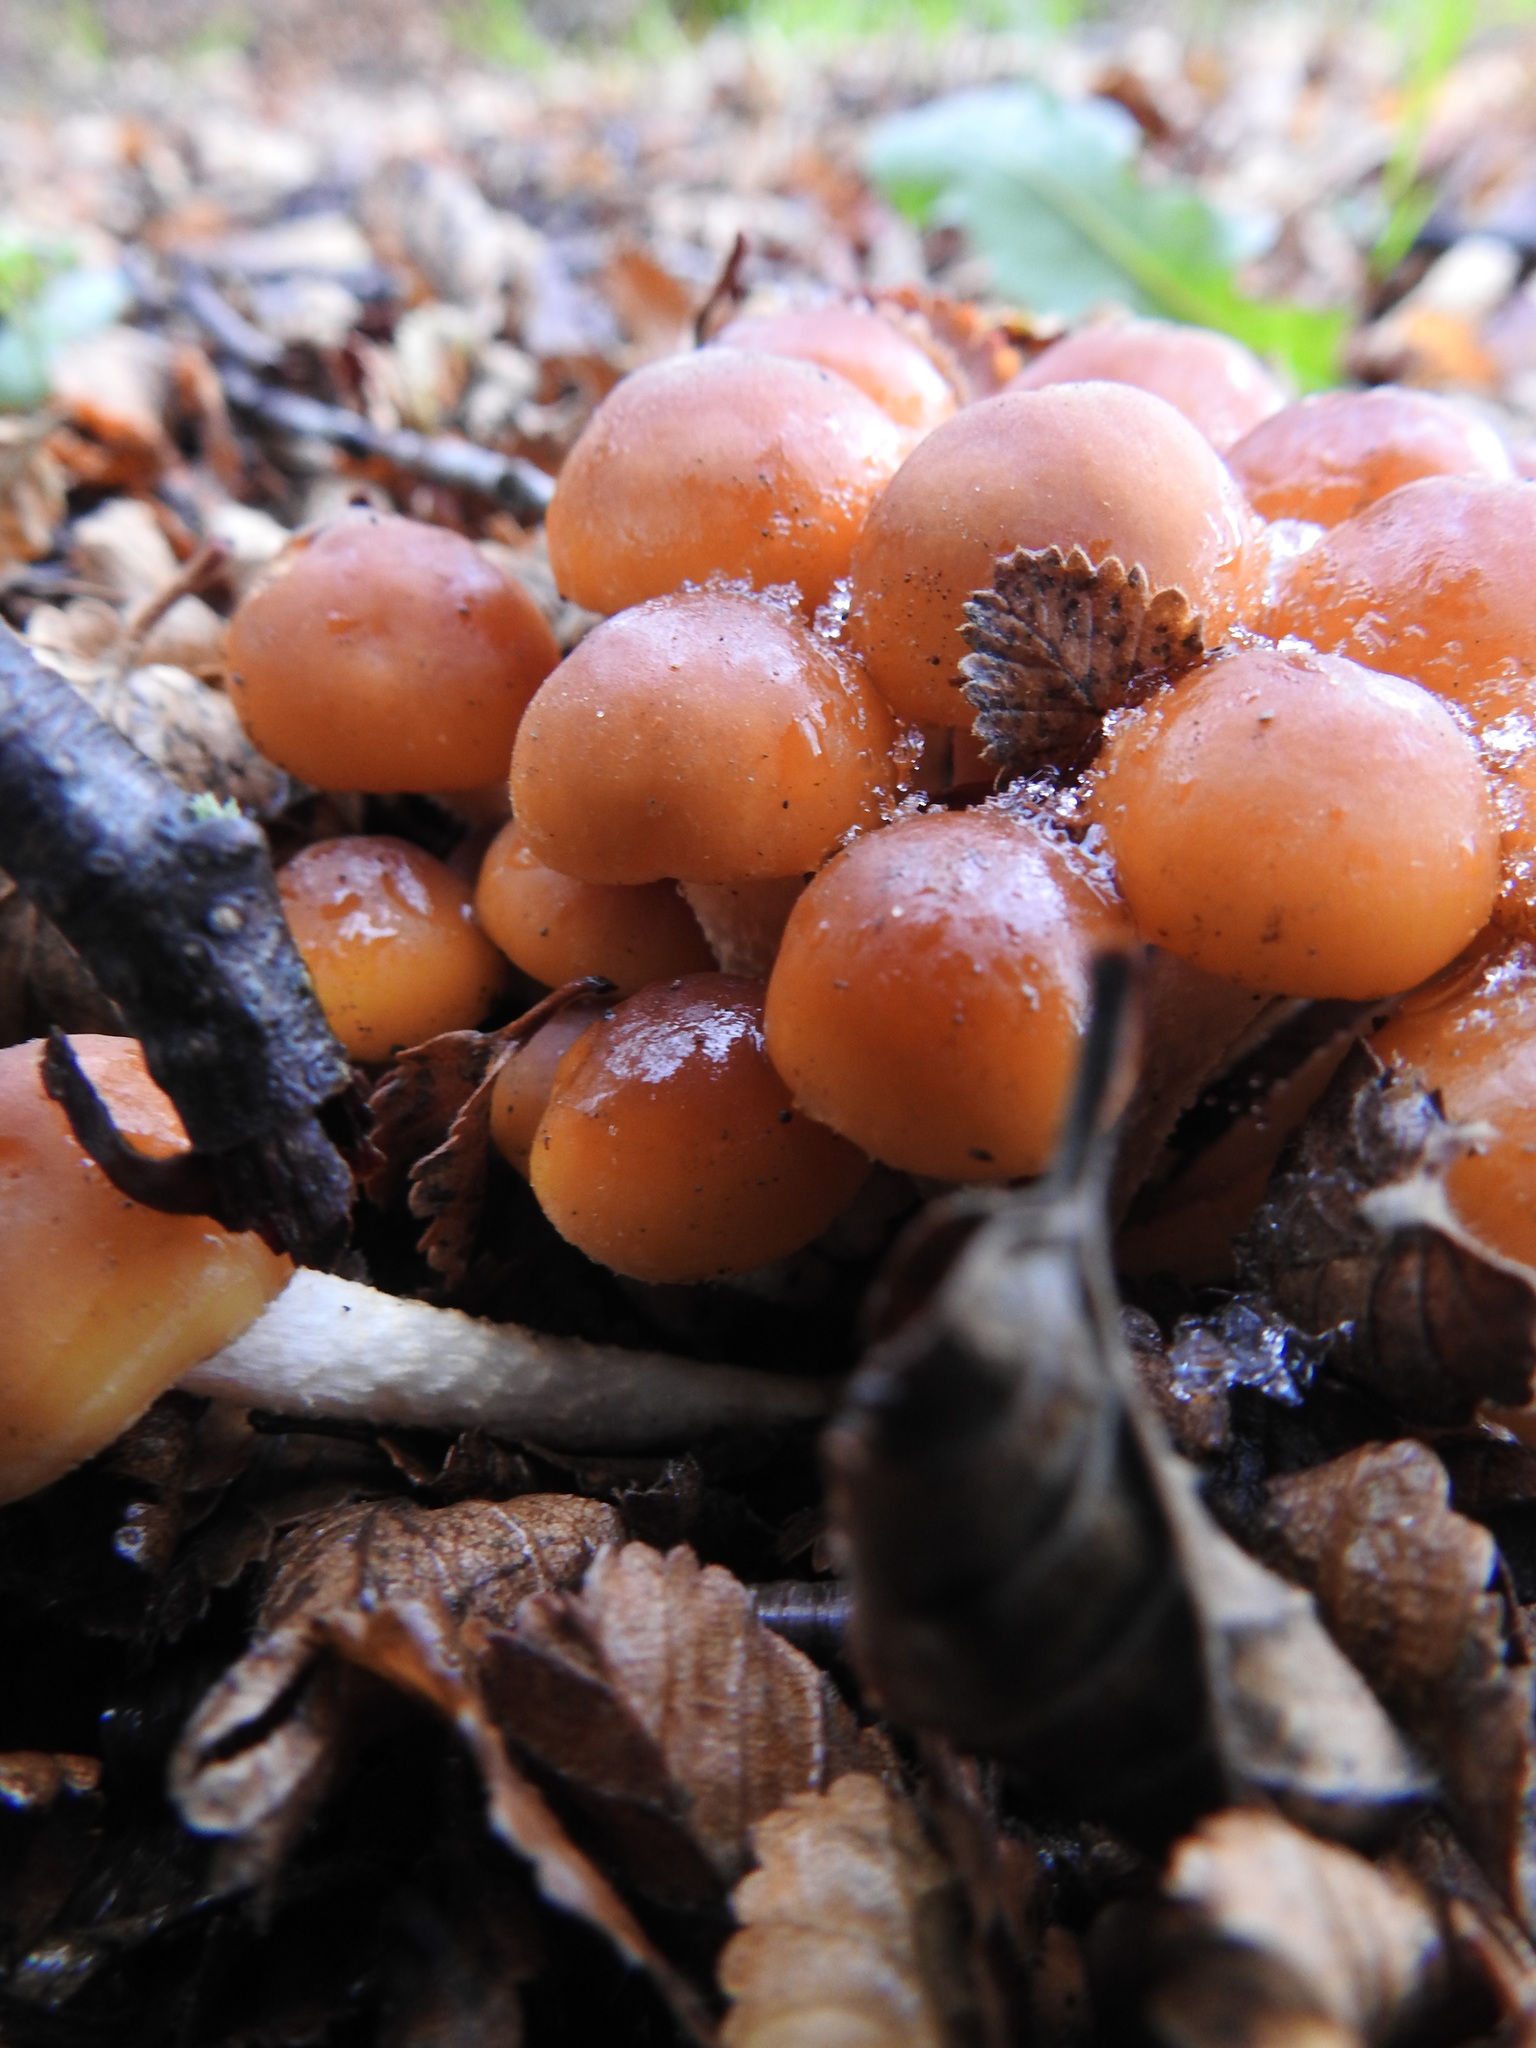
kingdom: Fungi
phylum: Basidiomycota
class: Agaricomycetes
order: Agaricales
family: Strophariaceae
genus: Hypholoma
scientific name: Hypholoma frowardii
